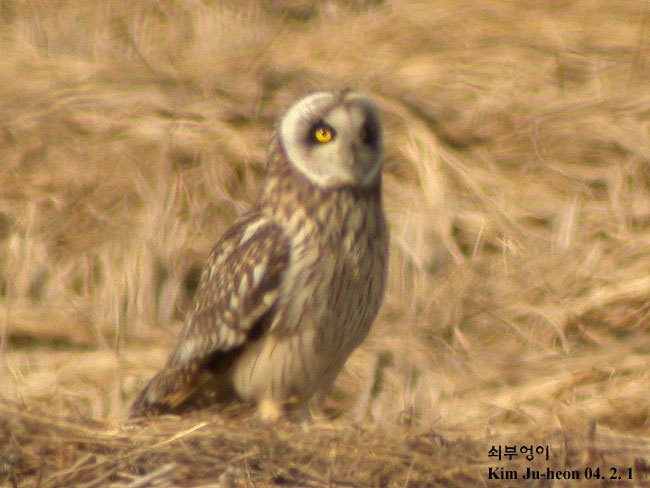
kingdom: Animalia
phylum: Chordata
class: Aves
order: Strigiformes
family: Strigidae
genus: Asio
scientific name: Asio flammeus
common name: Short-eared owl
